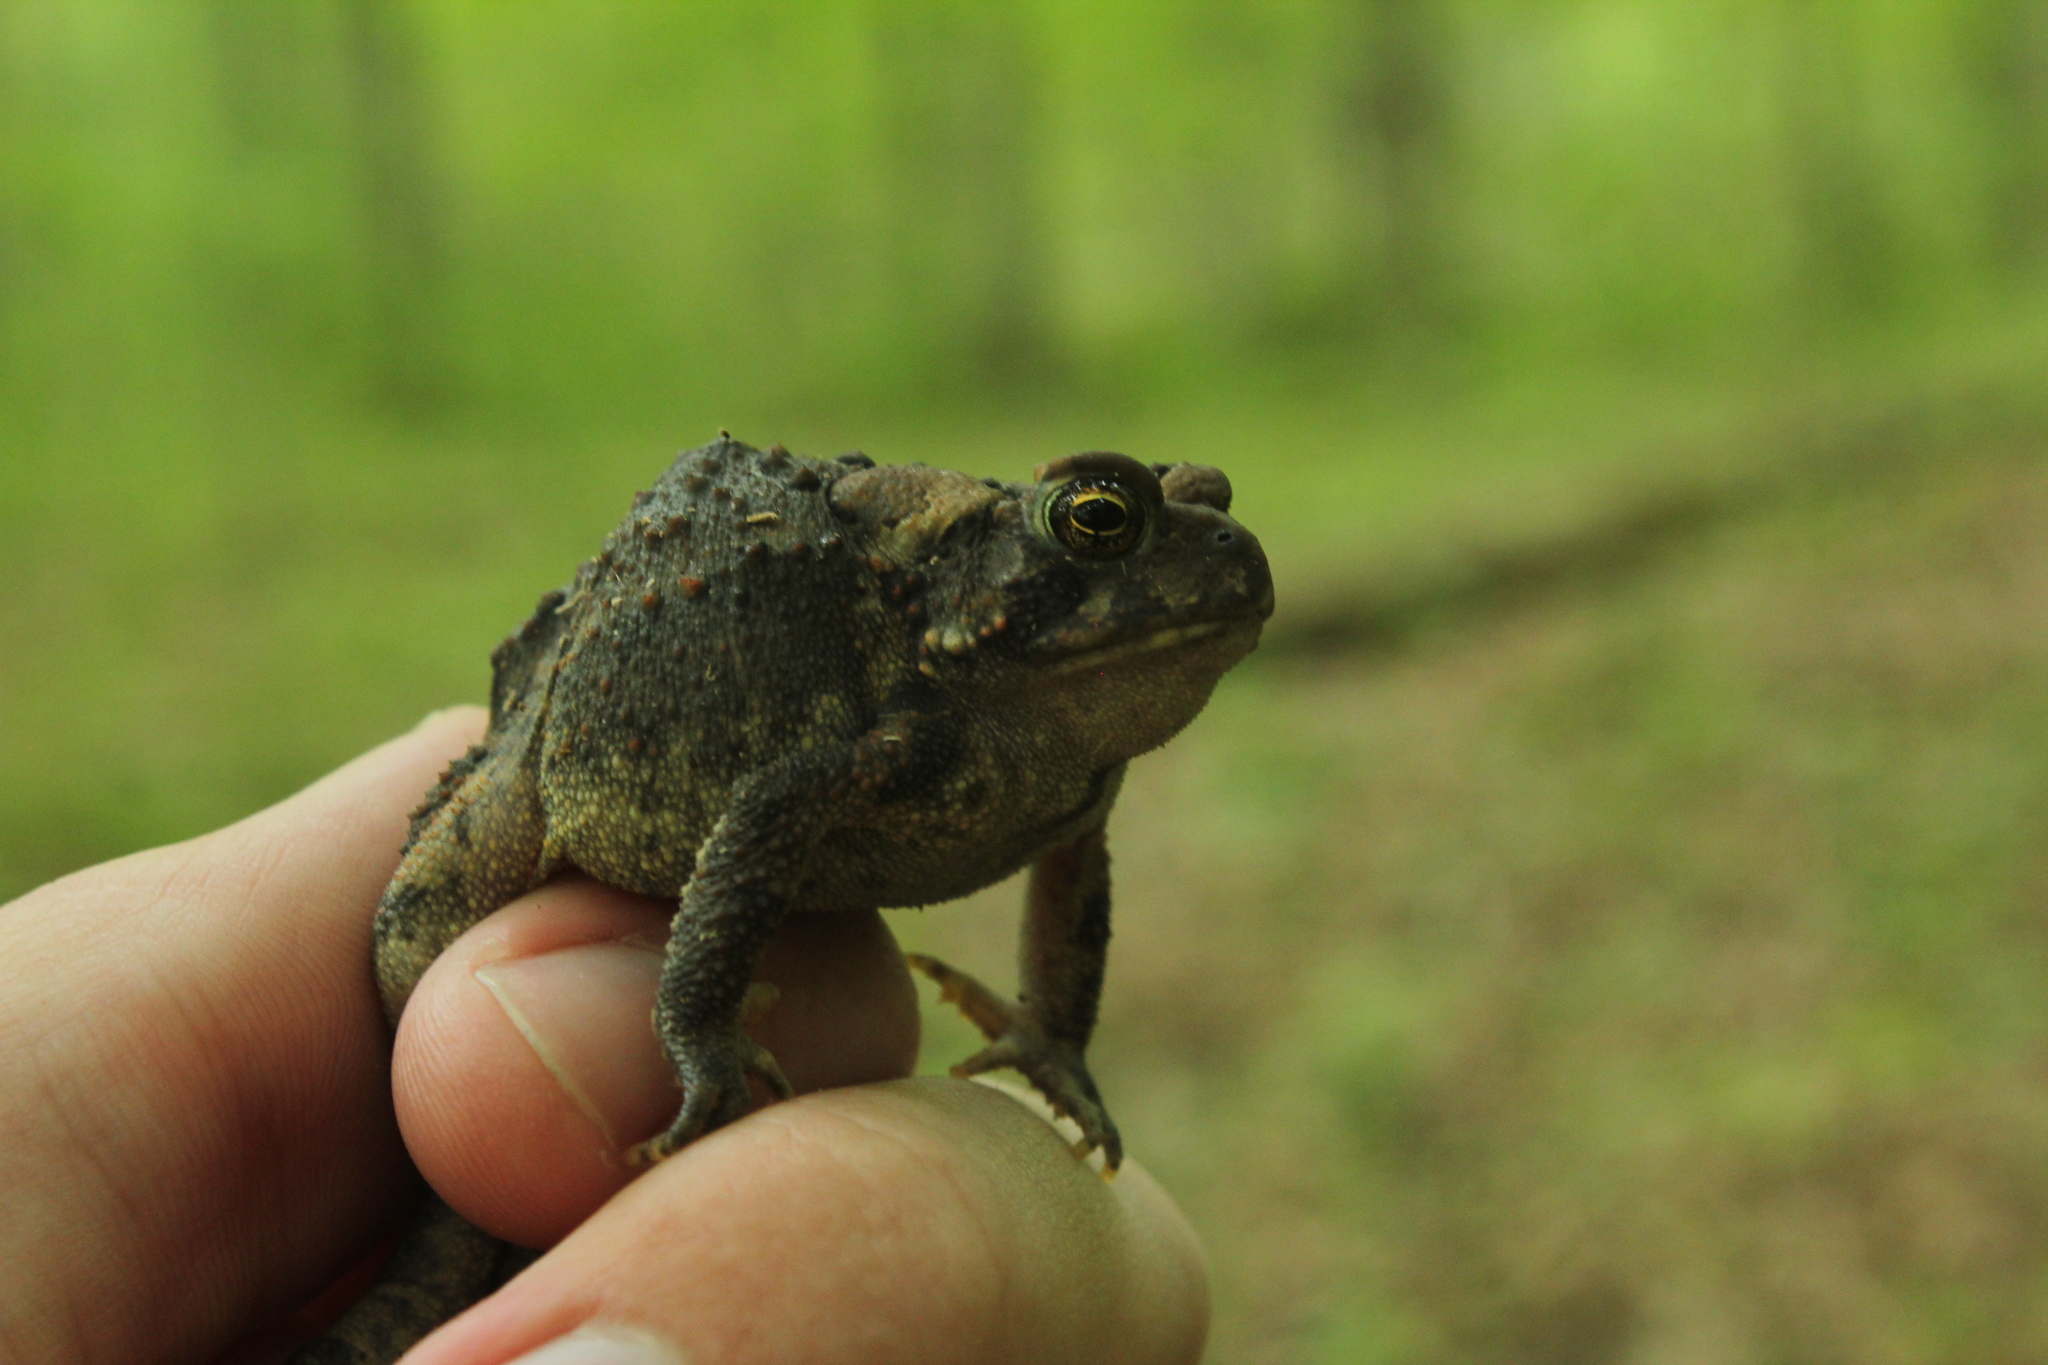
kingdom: Animalia
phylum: Chordata
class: Amphibia
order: Anura
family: Bufonidae
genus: Anaxyrus
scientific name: Anaxyrus americanus
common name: American toad
